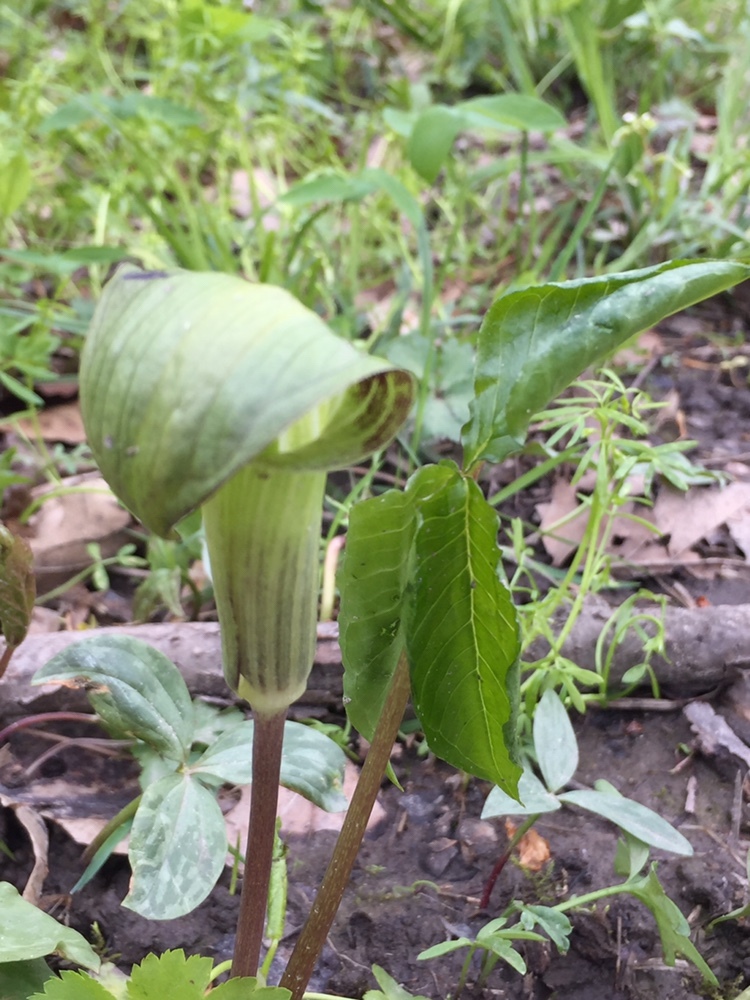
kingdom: Plantae
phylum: Tracheophyta
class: Liliopsida
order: Alismatales
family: Araceae
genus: Arisaema
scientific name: Arisaema triphyllum
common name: Jack-in-the-pulpit
